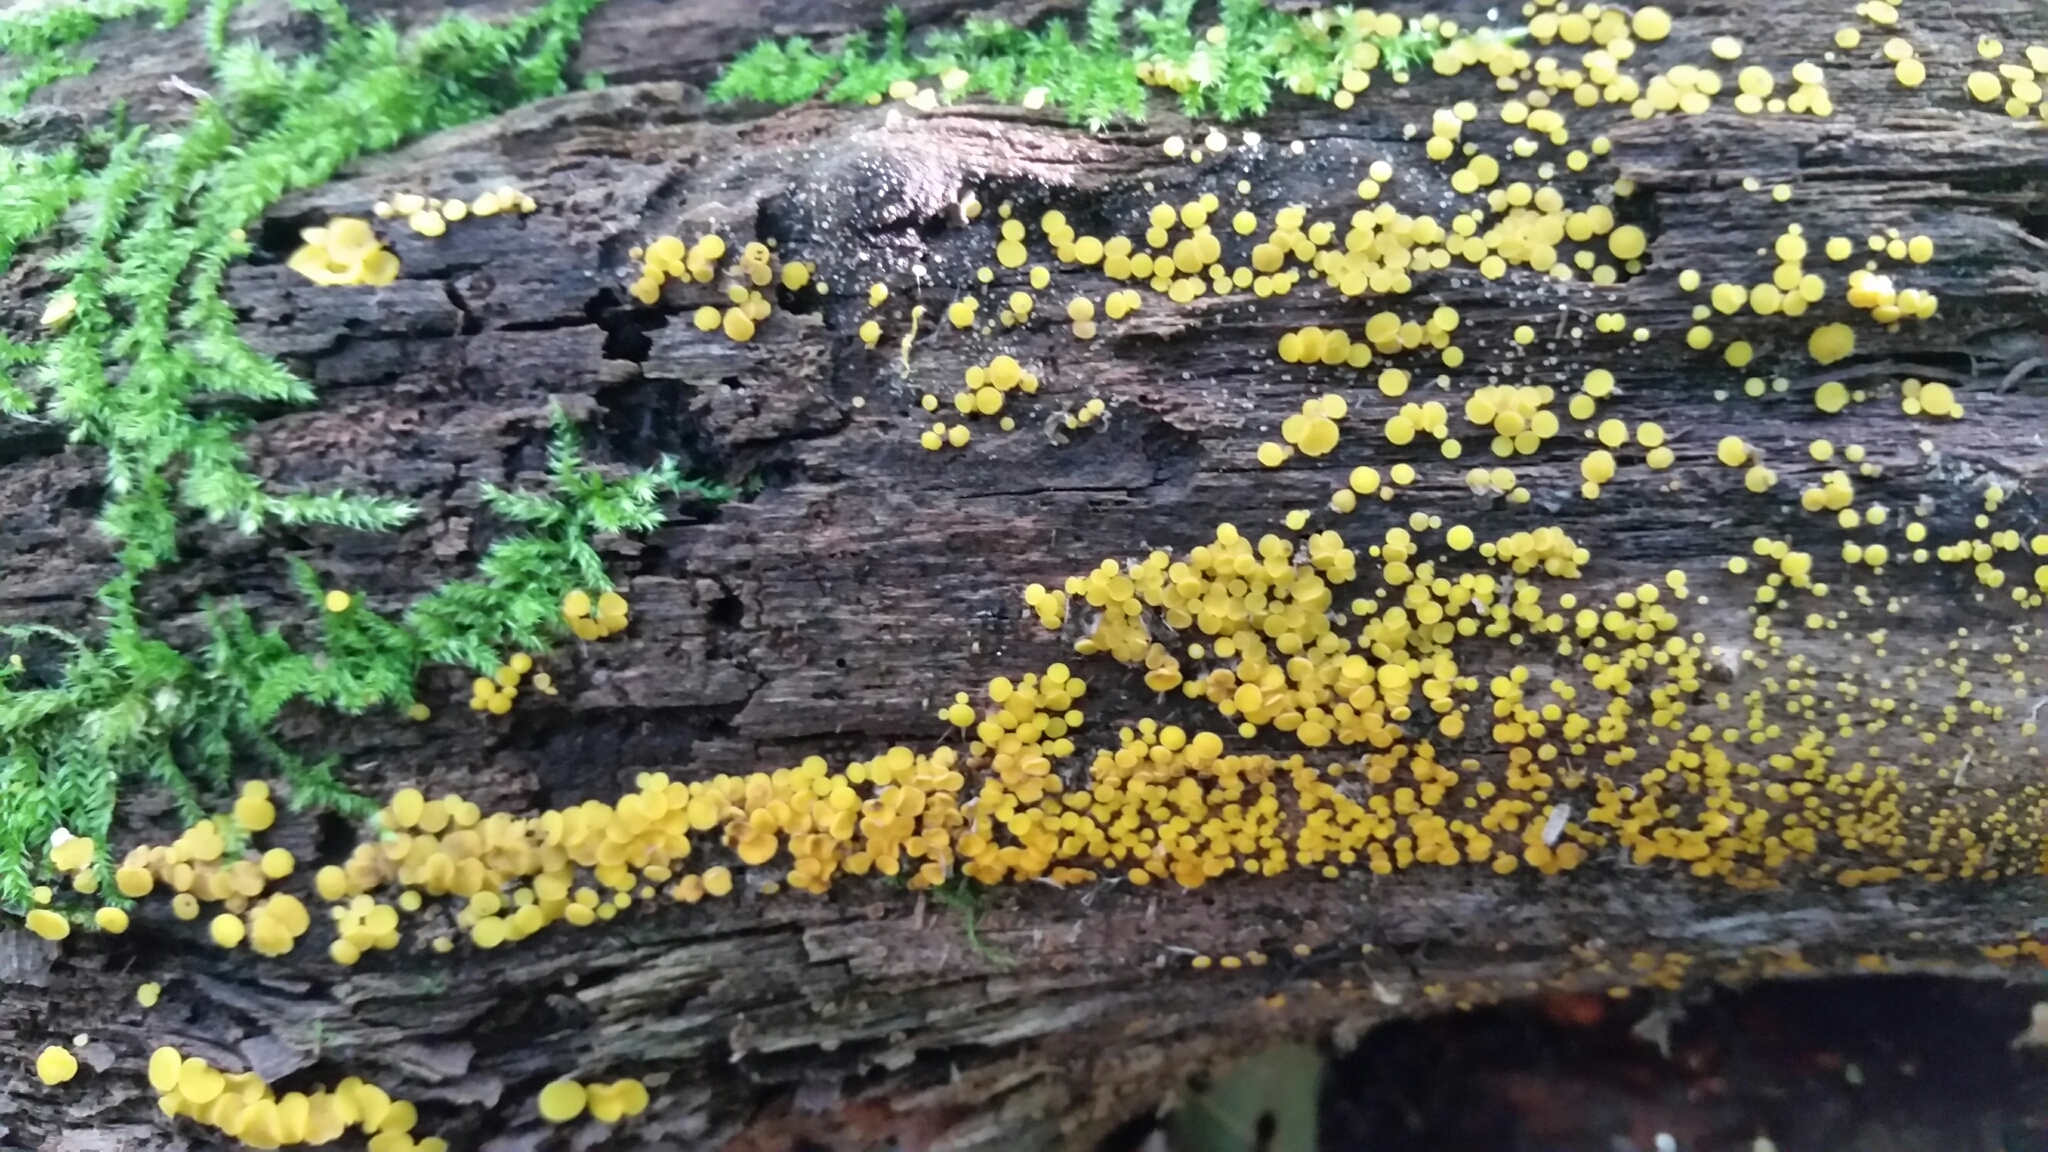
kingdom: Fungi
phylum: Ascomycota
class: Leotiomycetes
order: Helotiales
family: Pezizellaceae
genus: Calycina
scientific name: Calycina citrina
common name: Yellow fairy cups
